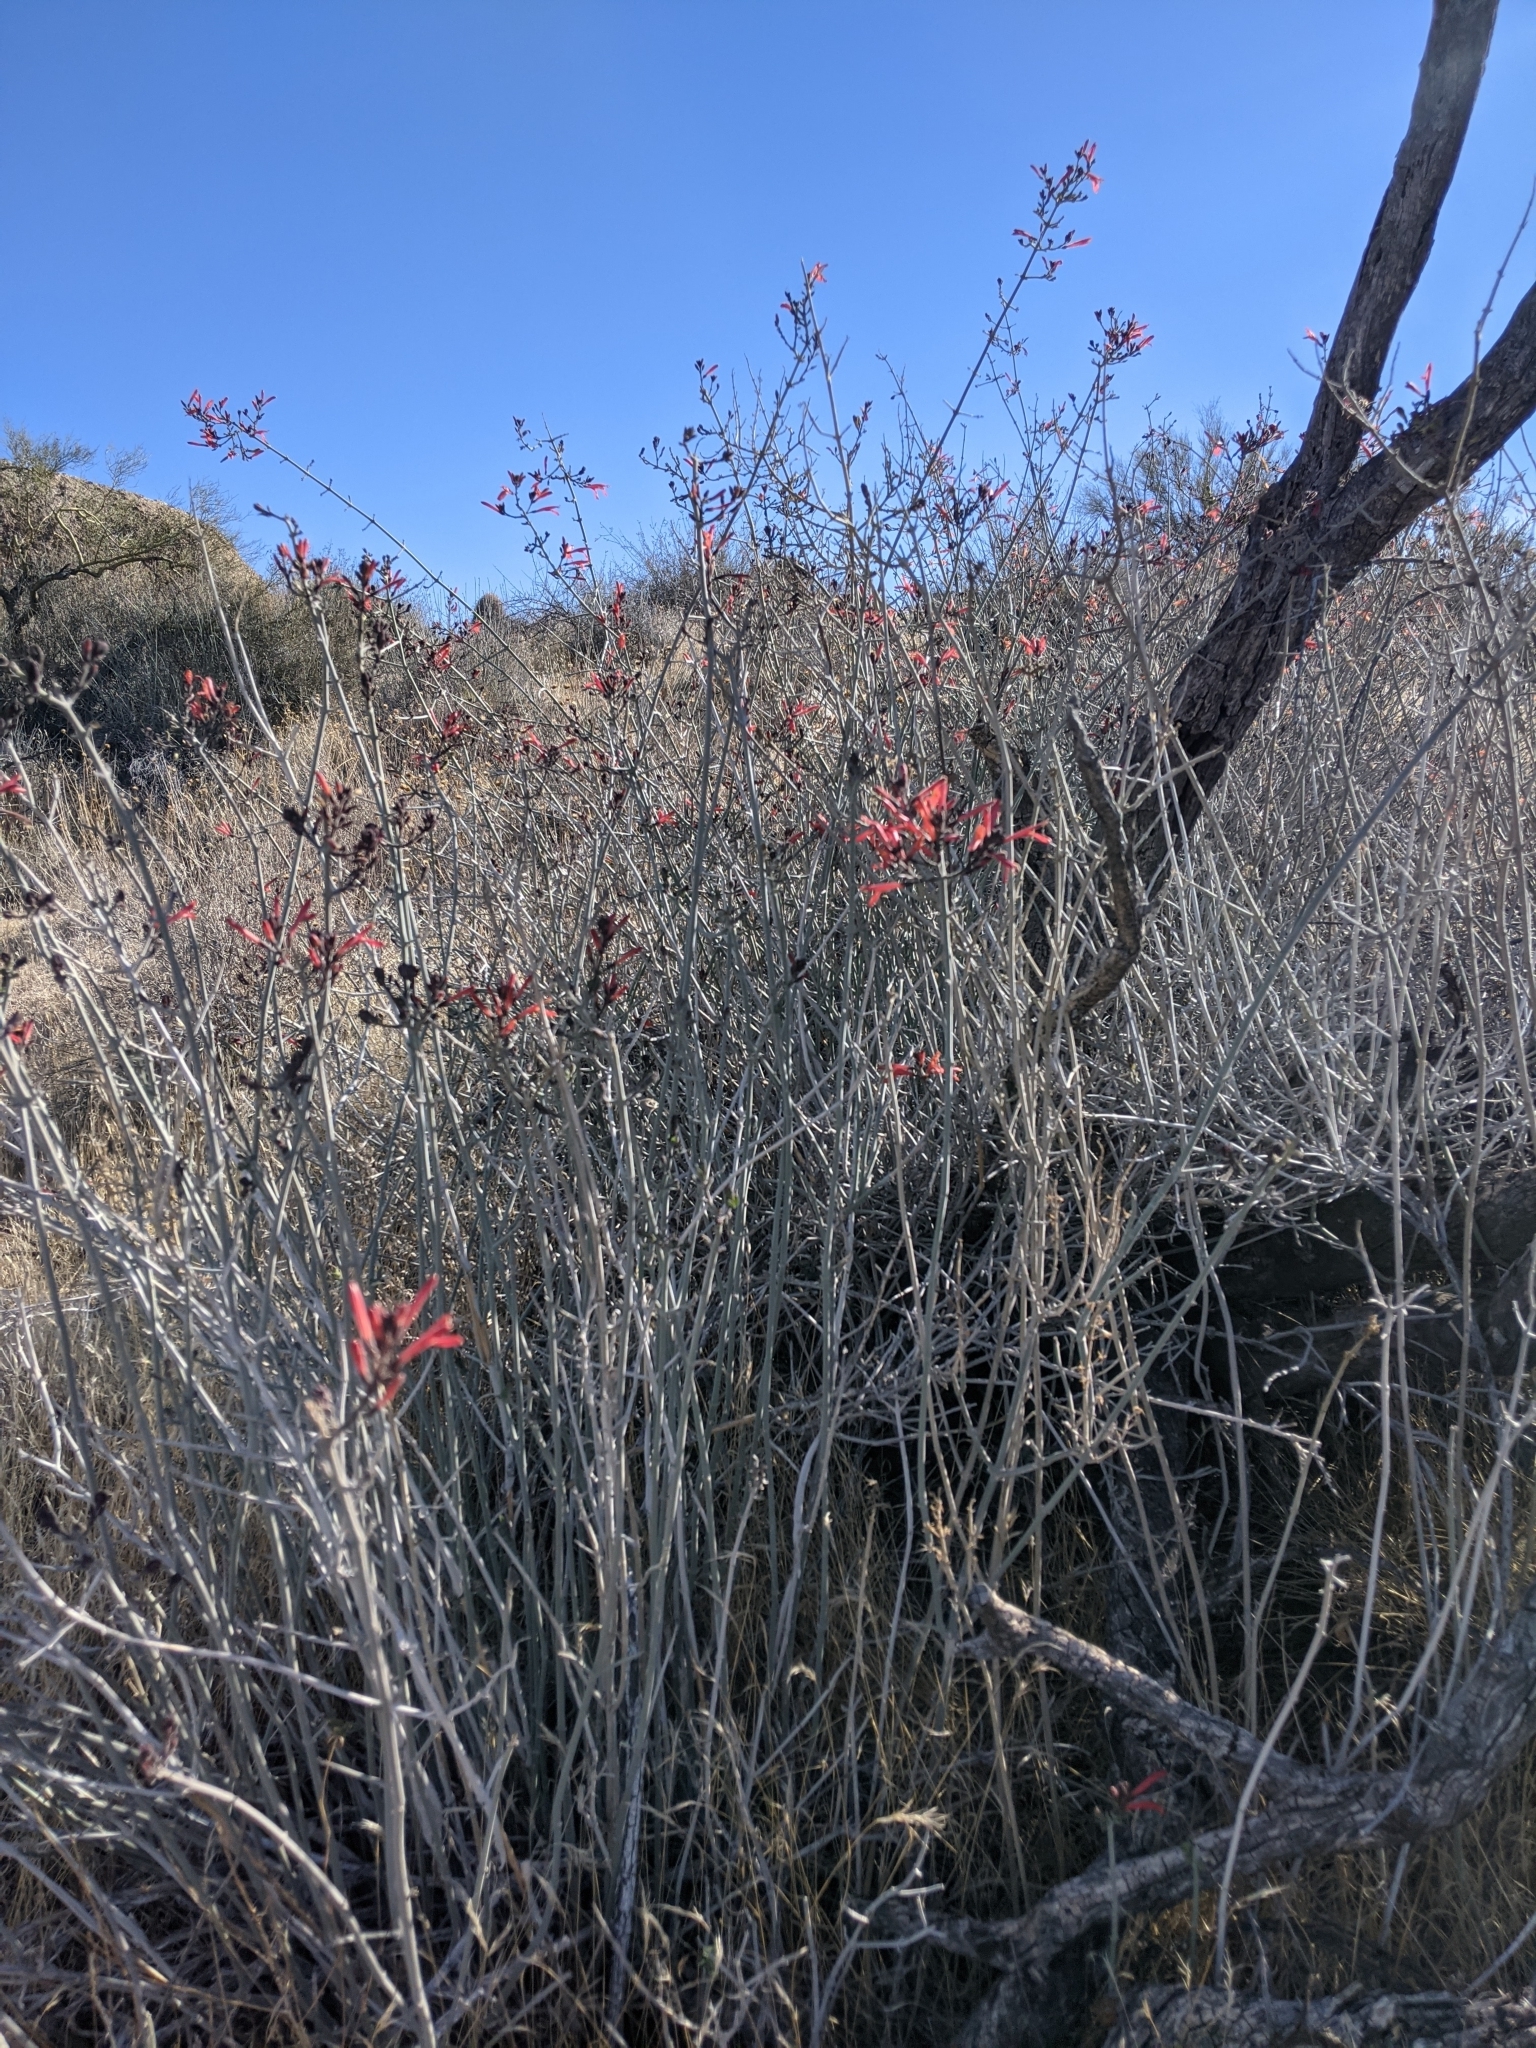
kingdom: Plantae
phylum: Tracheophyta
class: Magnoliopsida
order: Lamiales
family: Acanthaceae
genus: Justicia
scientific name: Justicia californica
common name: Chuparosa-honeysuckle
